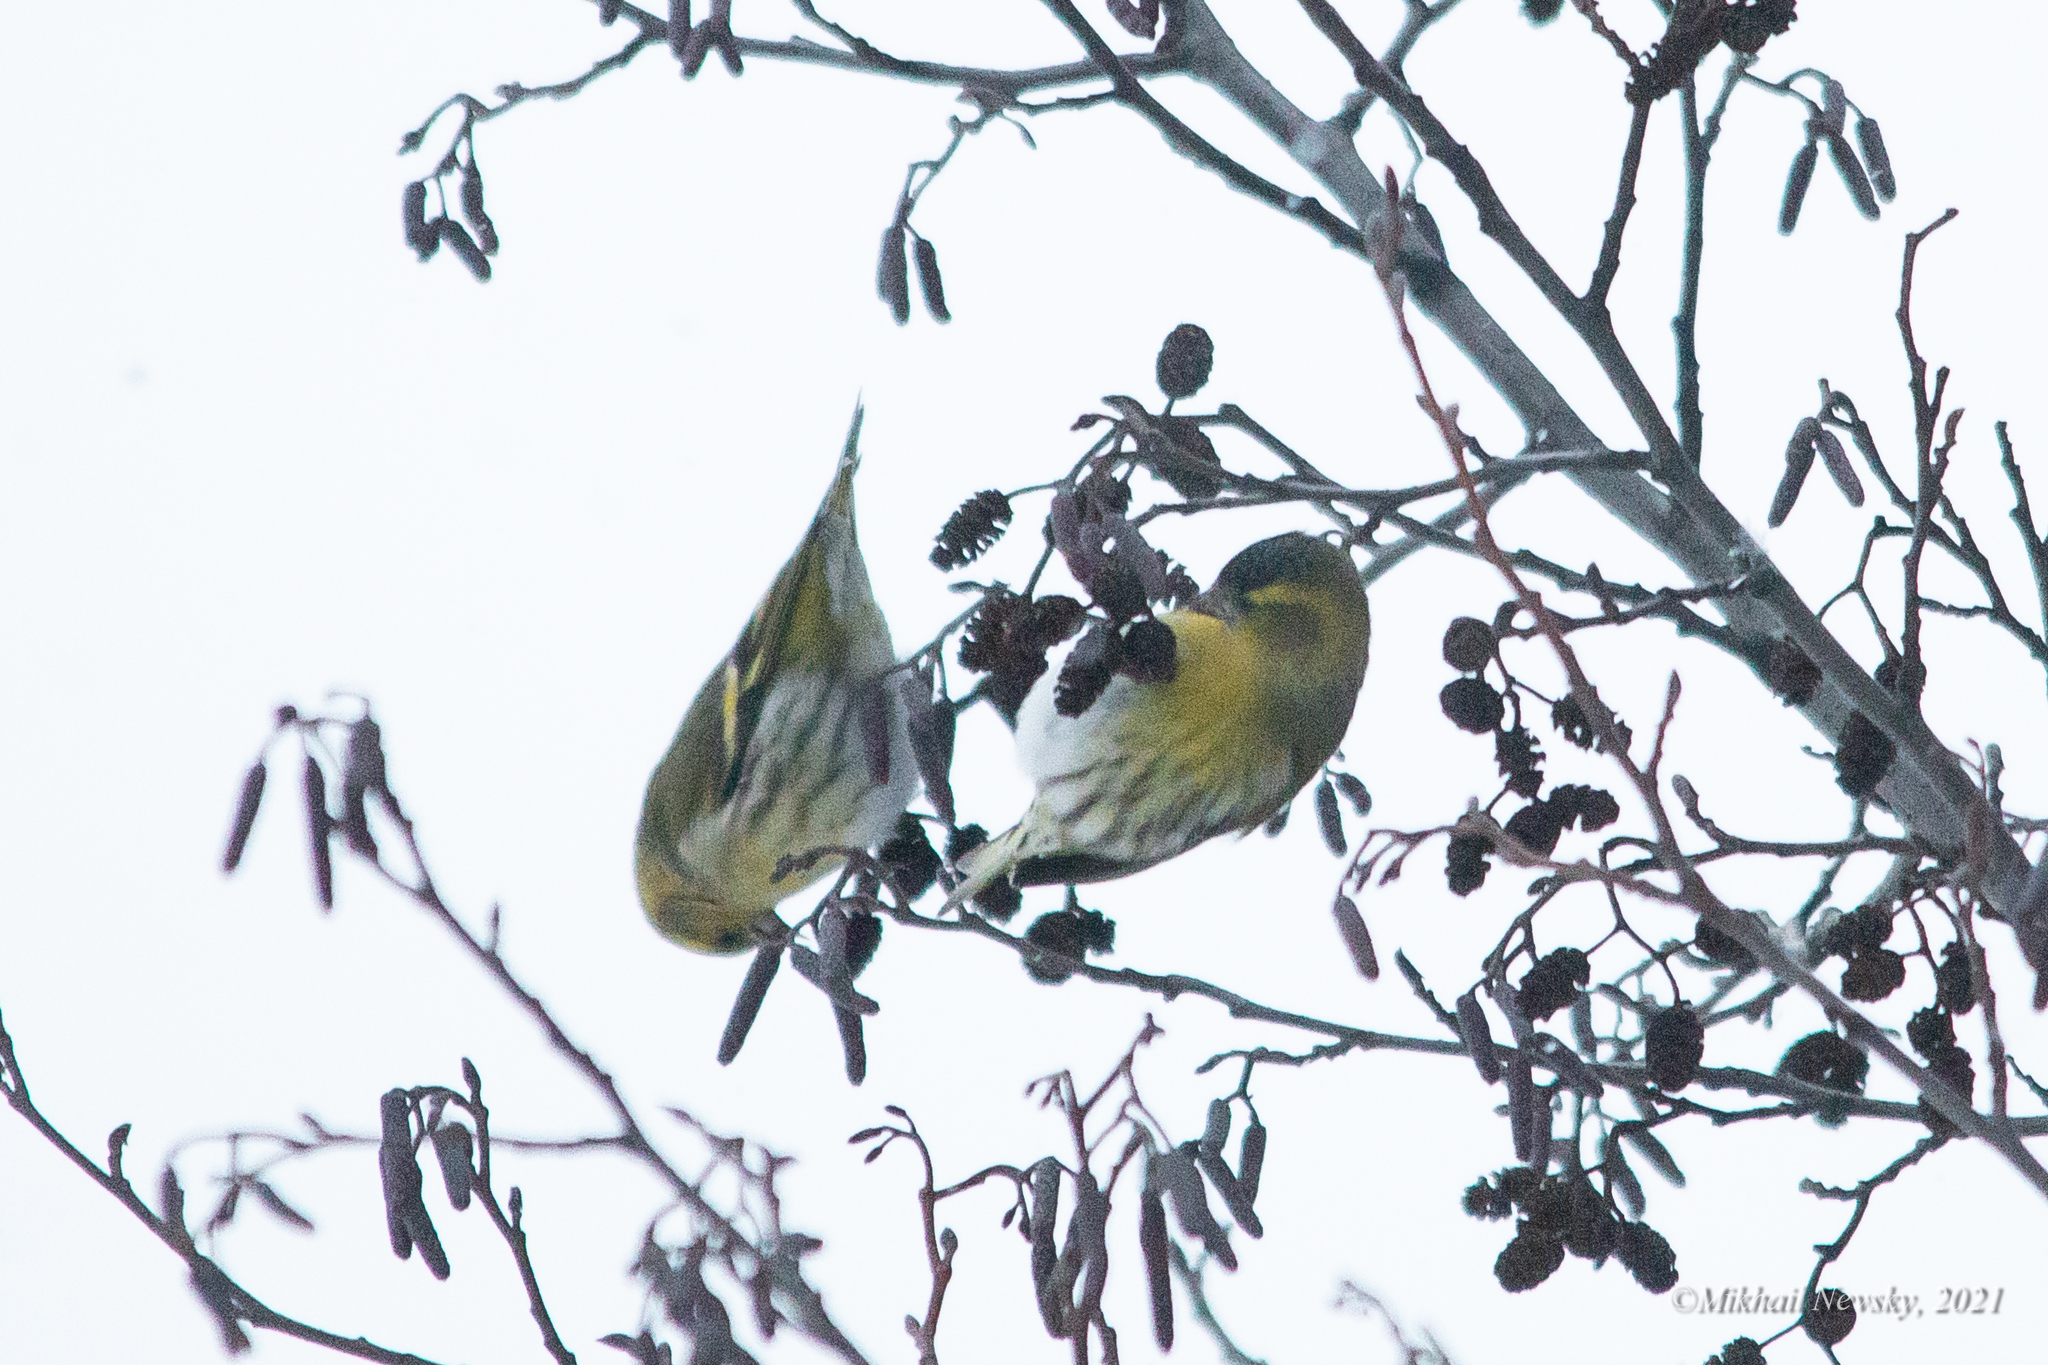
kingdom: Animalia
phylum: Chordata
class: Aves
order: Passeriformes
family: Fringillidae
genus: Spinus
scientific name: Spinus spinus
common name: Eurasian siskin
